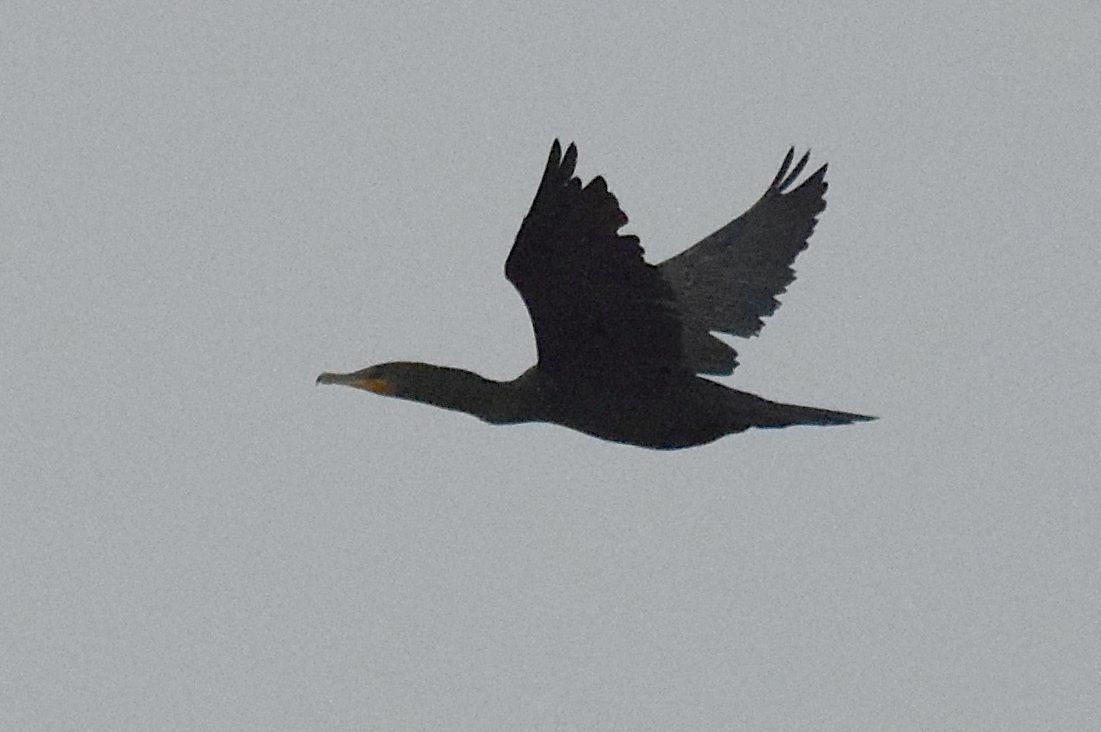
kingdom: Animalia
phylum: Chordata
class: Aves
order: Suliformes
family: Phalacrocoracidae
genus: Phalacrocorax
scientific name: Phalacrocorax auritus
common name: Double-crested cormorant
